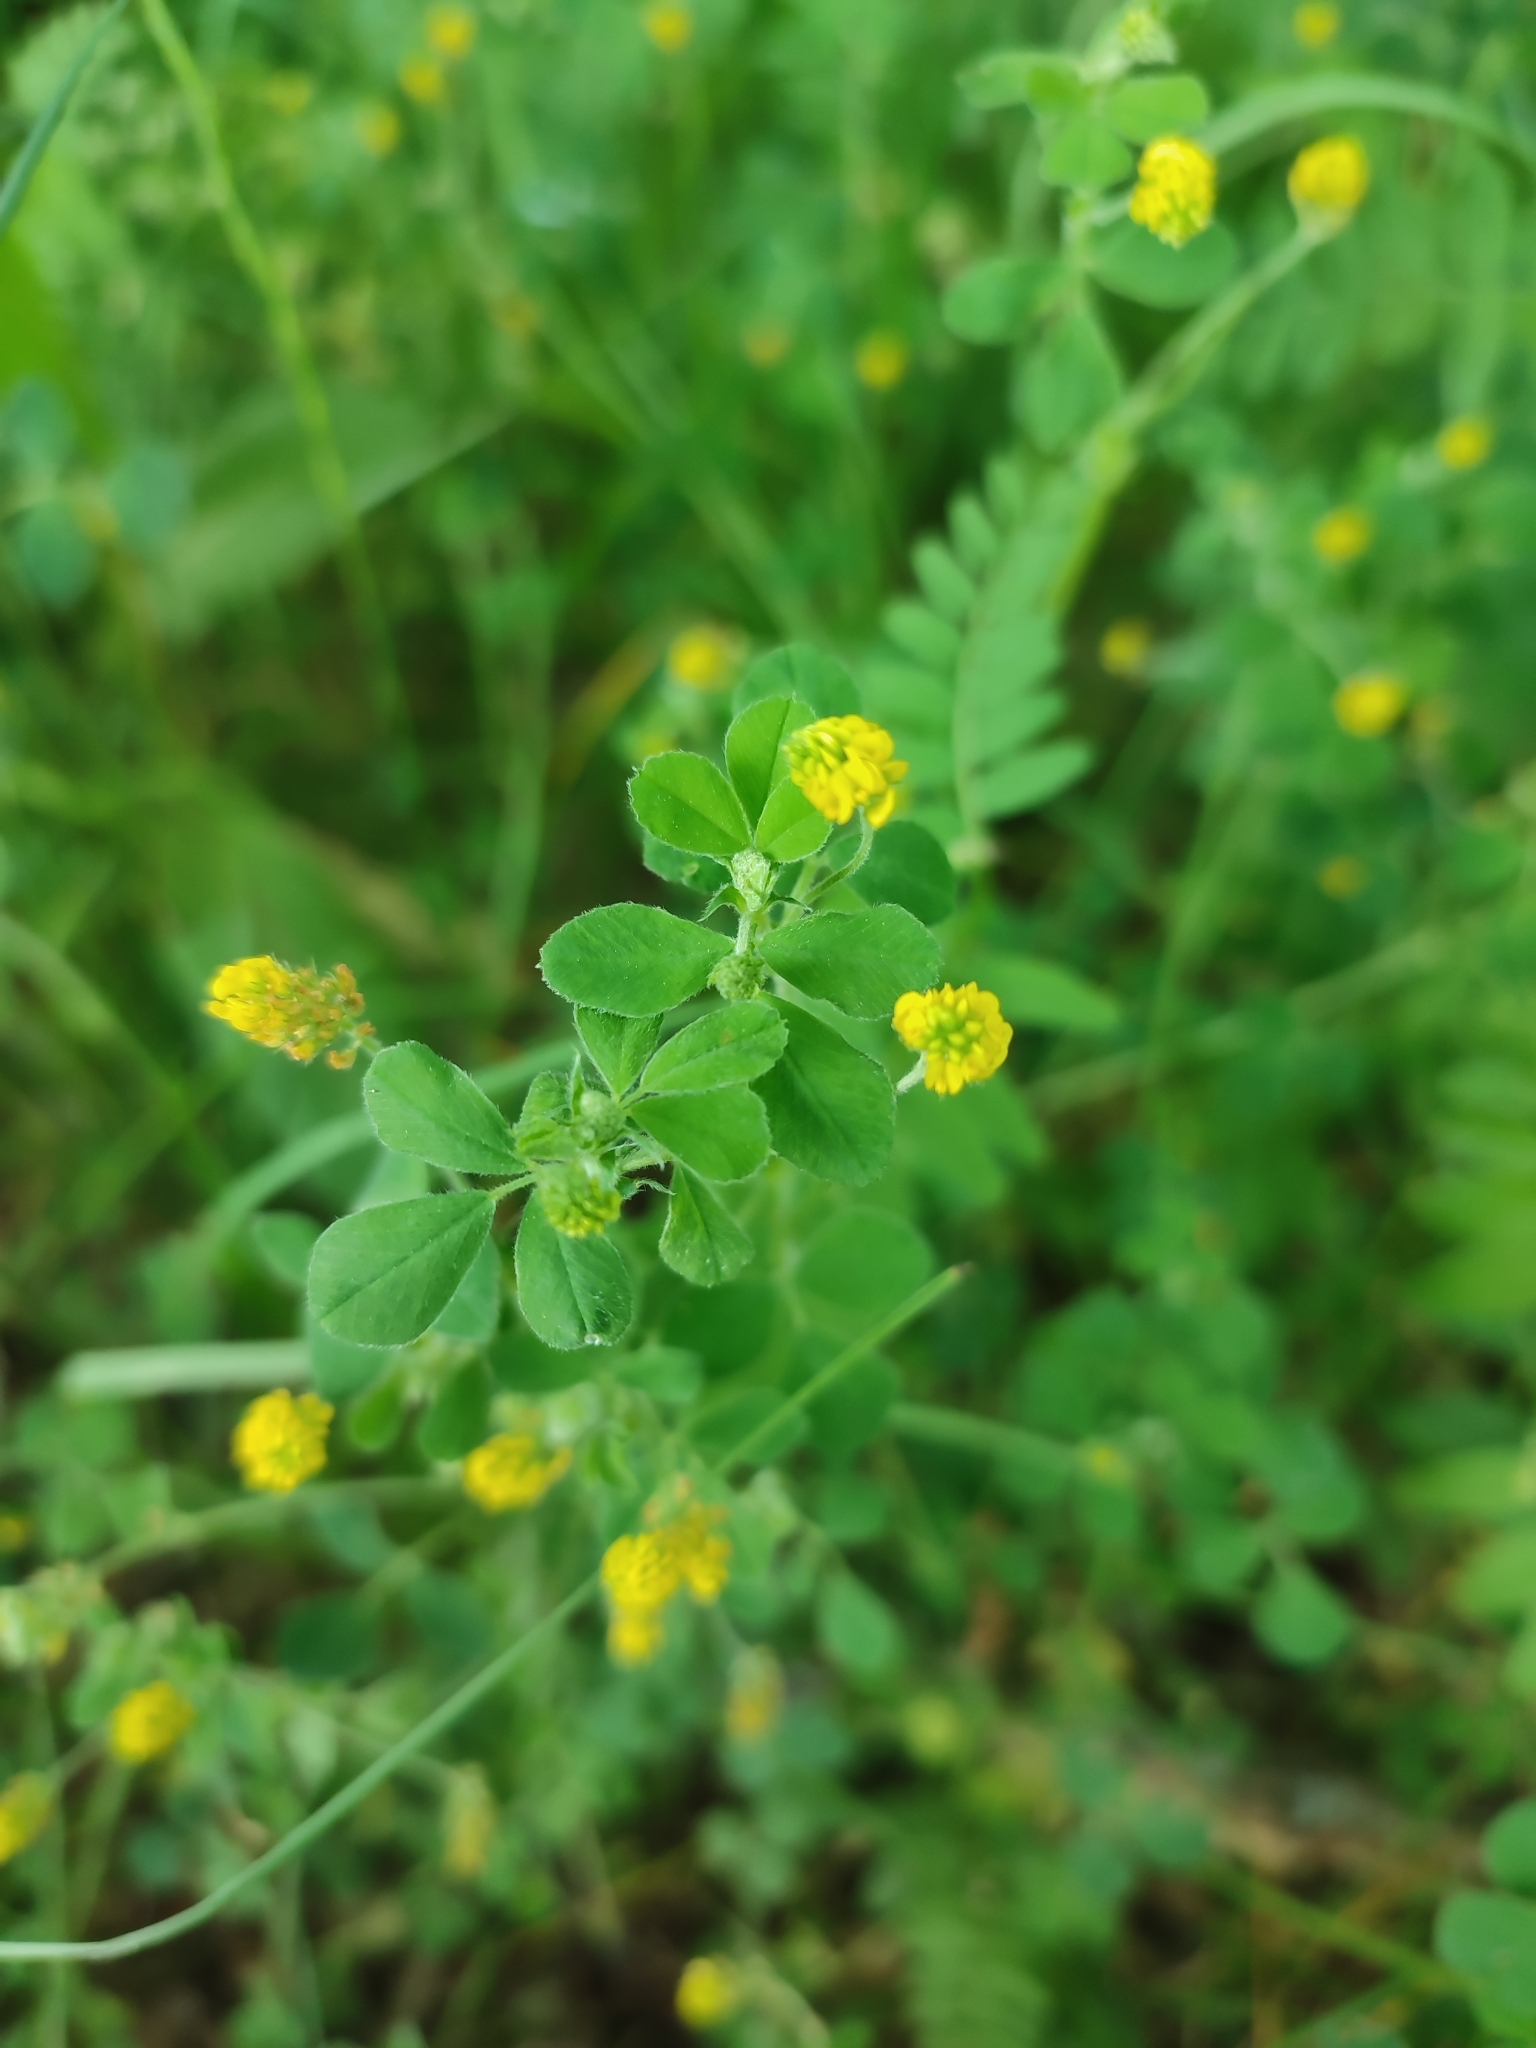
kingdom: Plantae
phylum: Tracheophyta
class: Magnoliopsida
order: Fabales
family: Fabaceae
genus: Medicago
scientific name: Medicago lupulina
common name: Black medick
